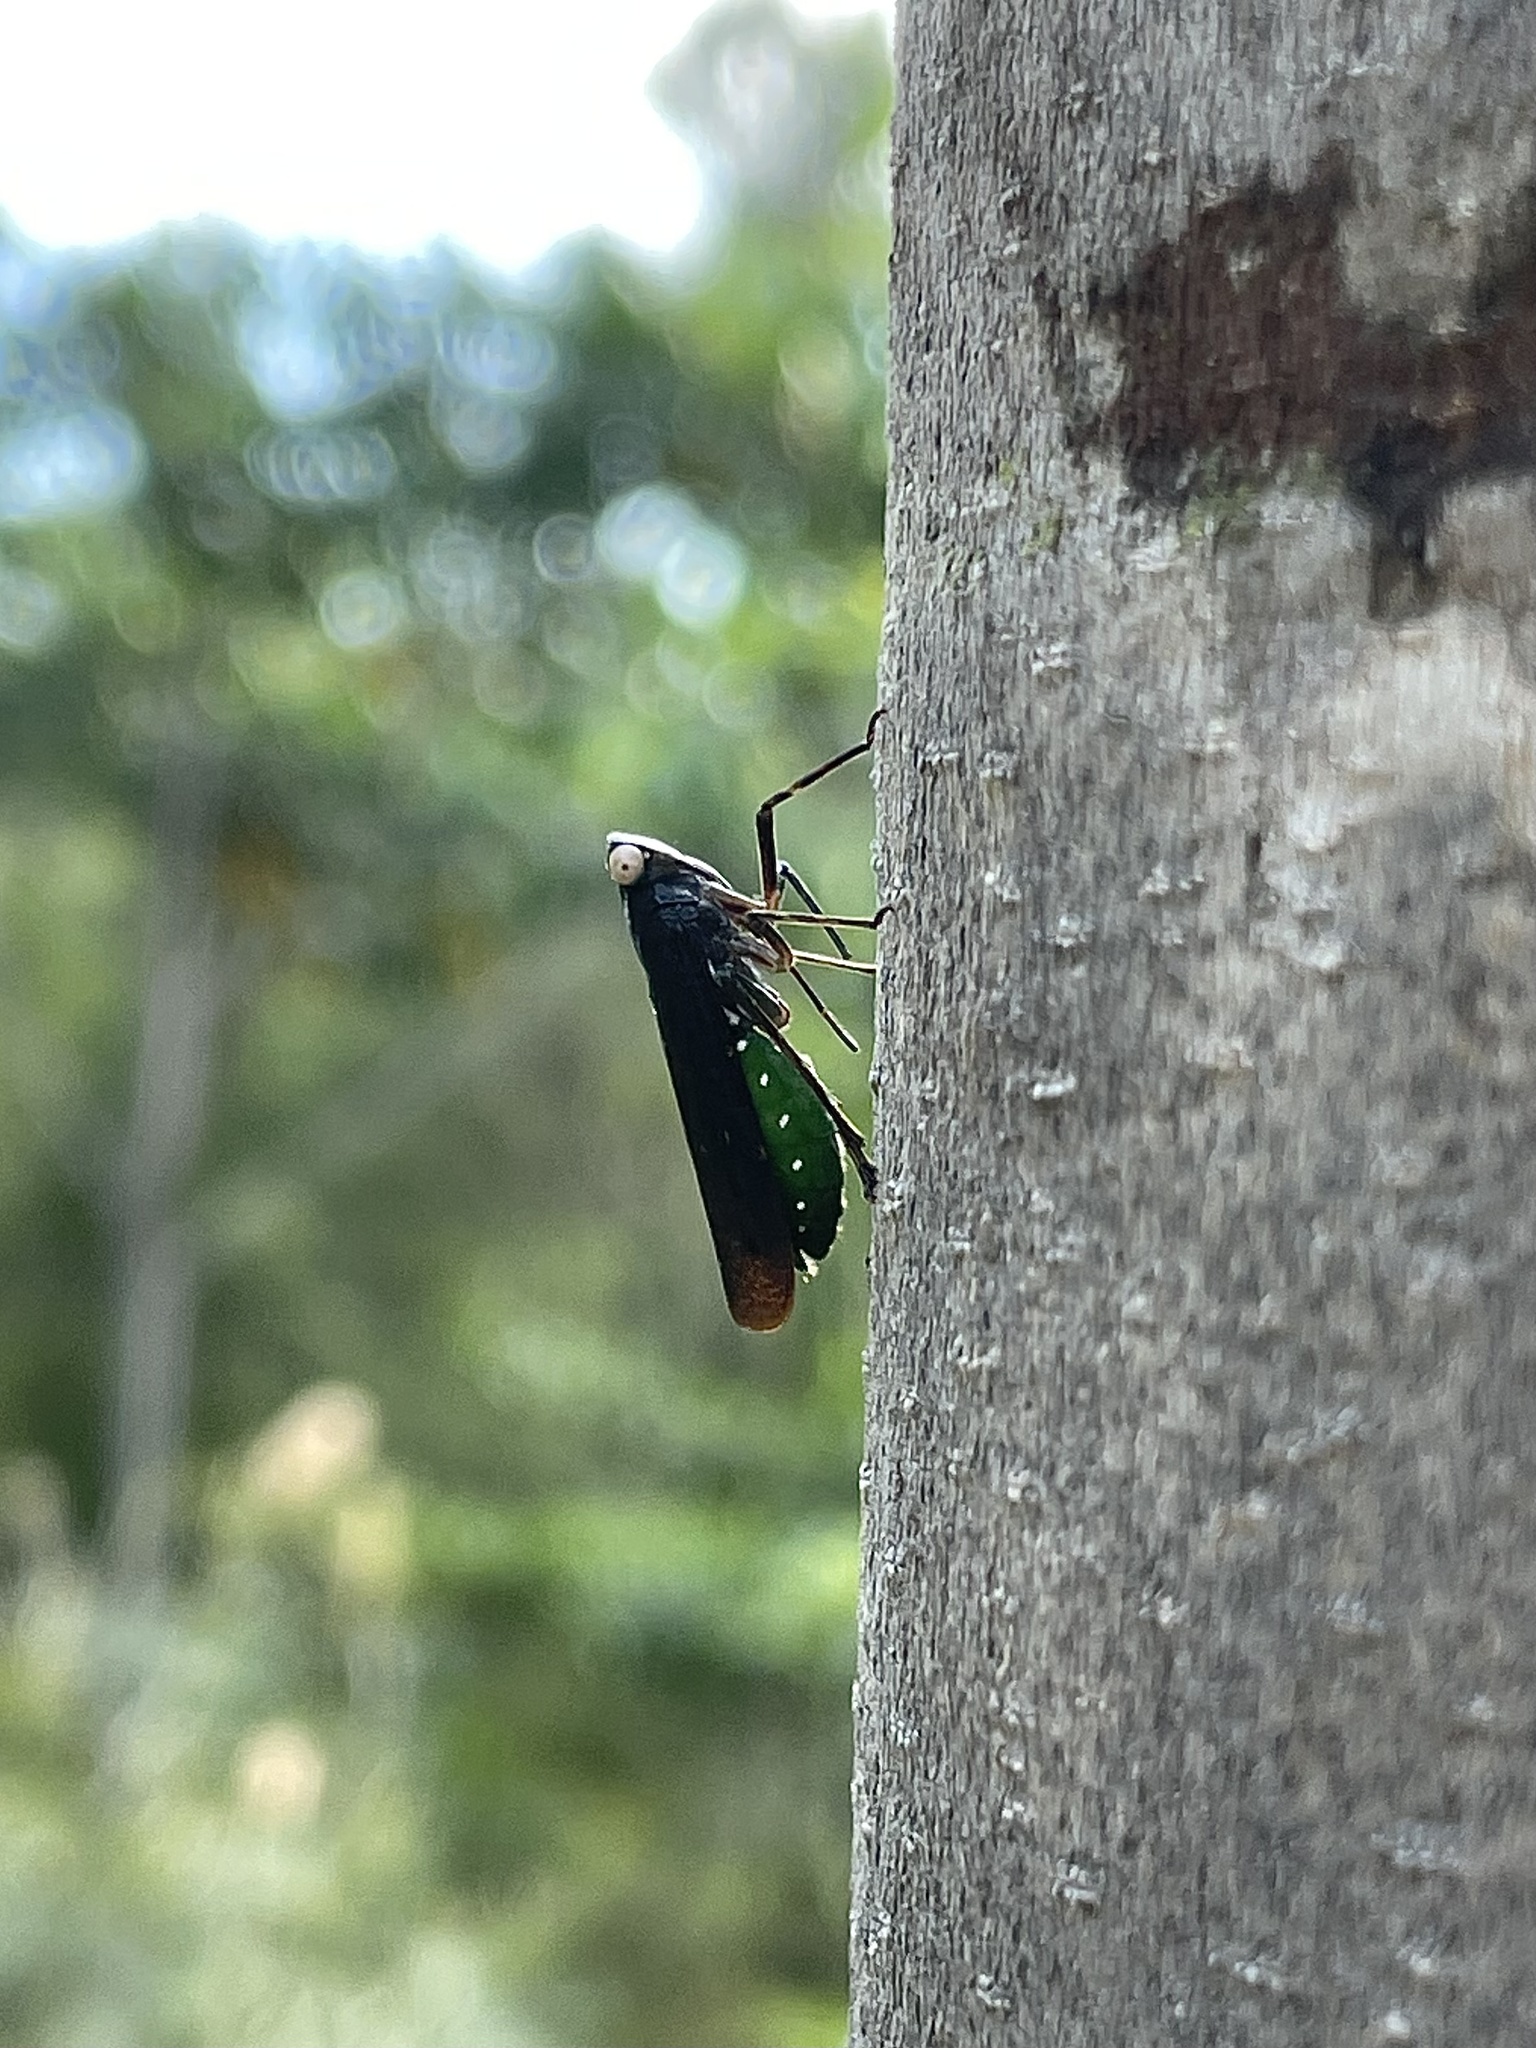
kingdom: Animalia
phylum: Arthropoda
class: Insecta
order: Hemiptera
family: Fulgoridae
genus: Desudaba
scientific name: Desudaba psittacus
